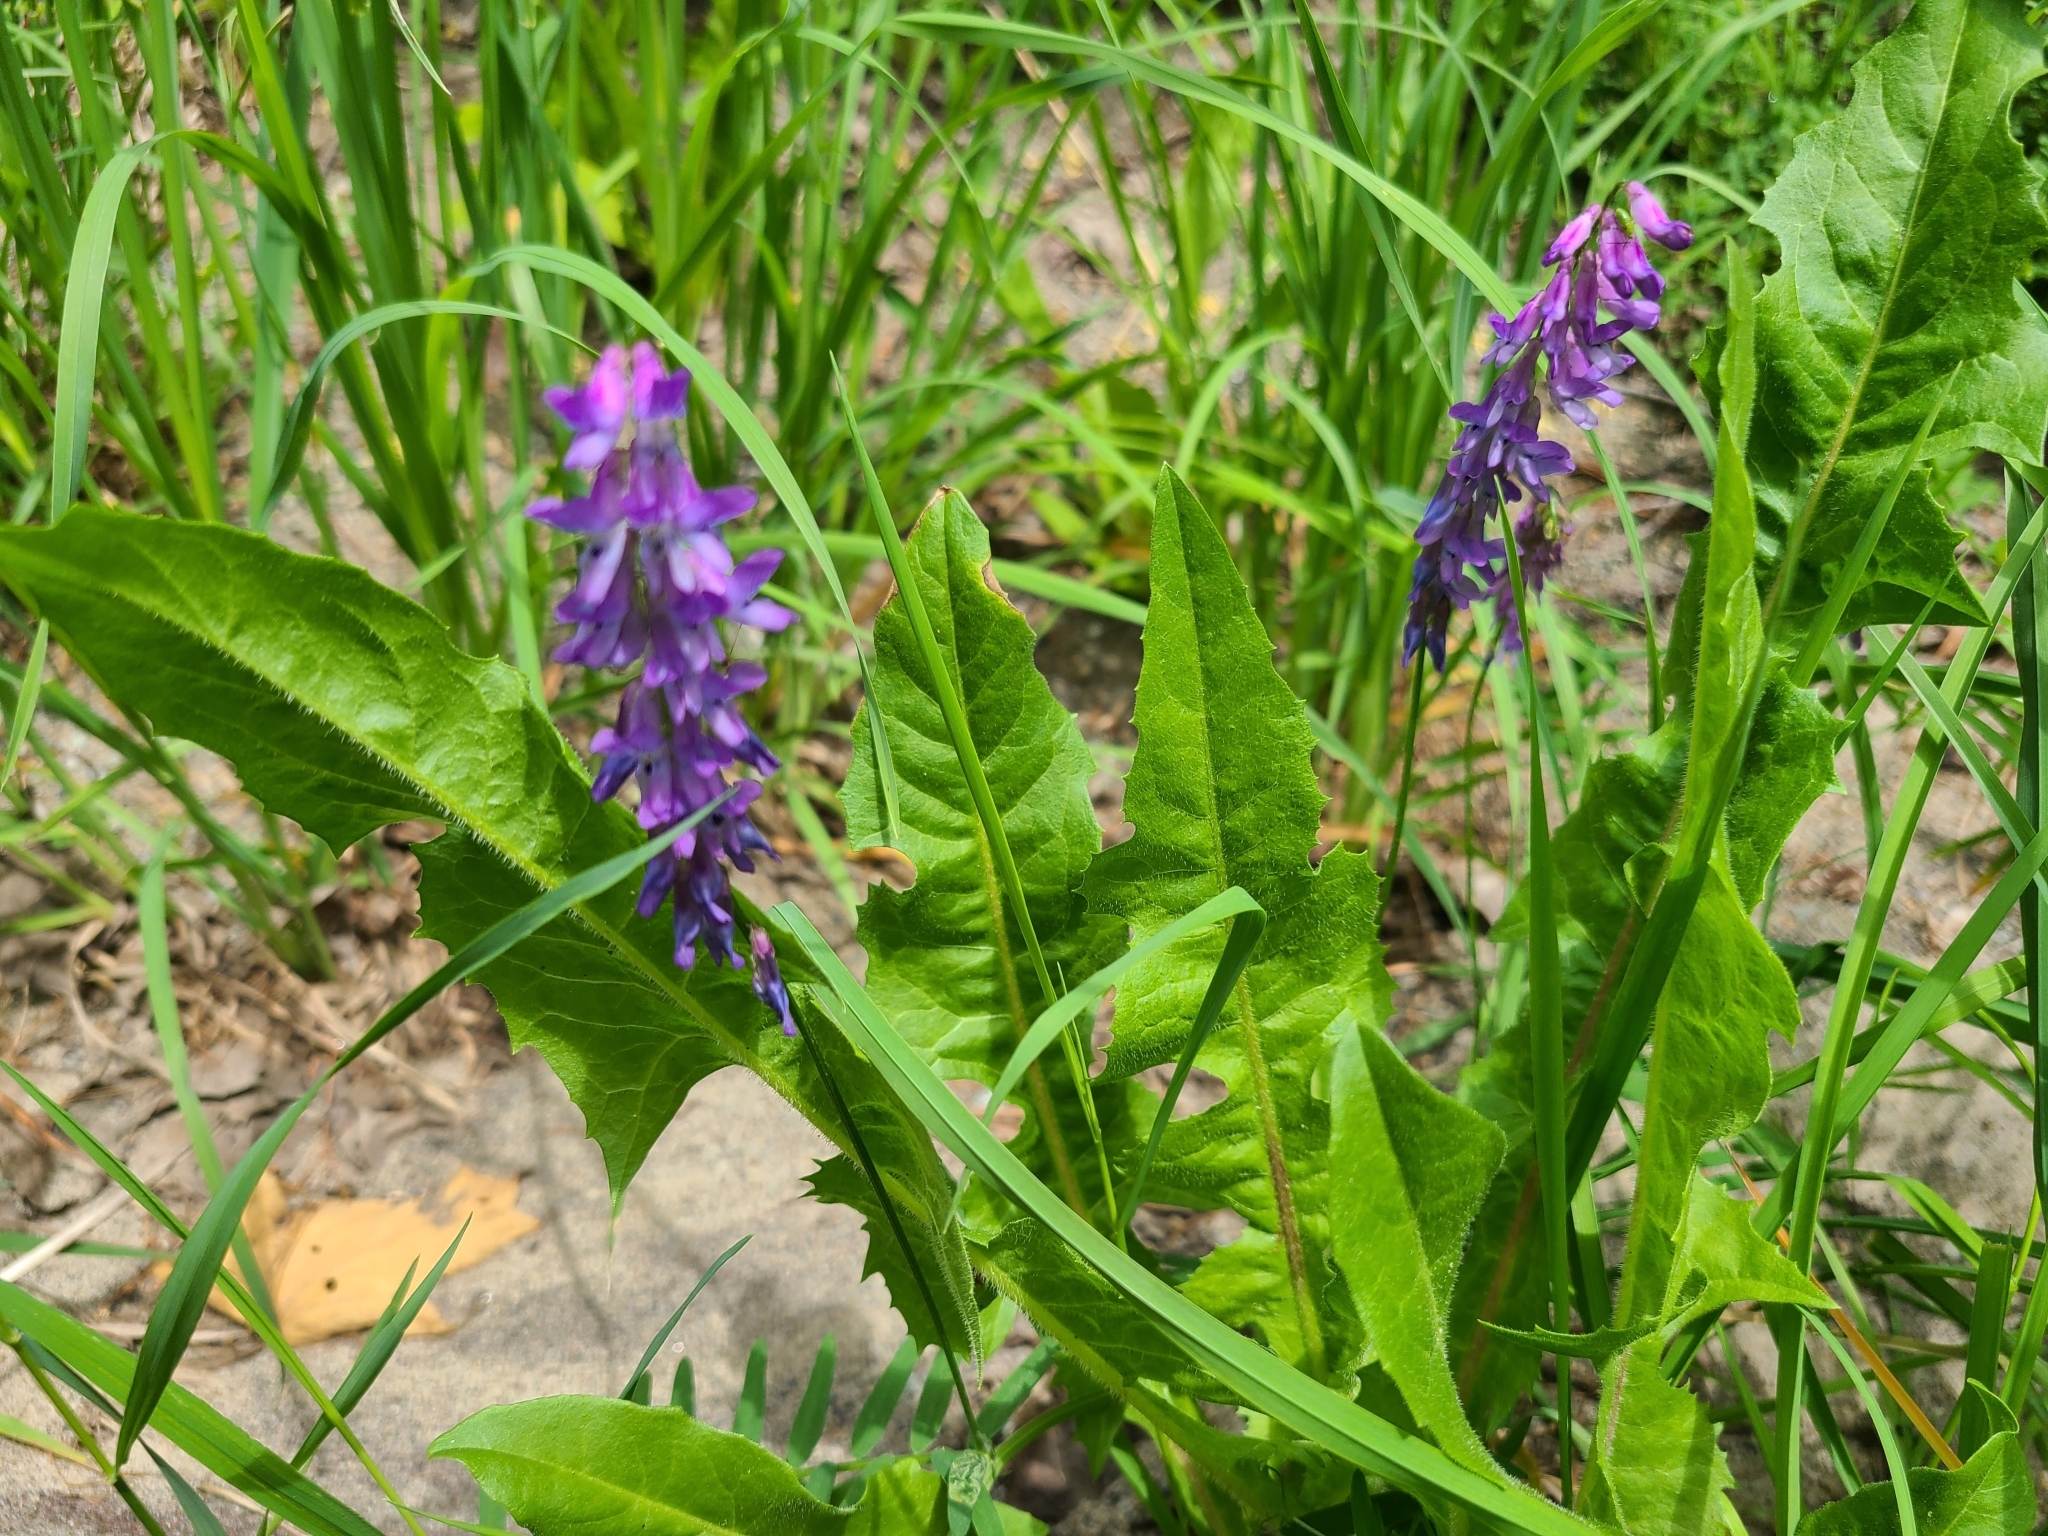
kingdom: Plantae
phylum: Tracheophyta
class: Magnoliopsida
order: Fabales
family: Fabaceae
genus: Vicia
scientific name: Vicia cracca
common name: Bird vetch
